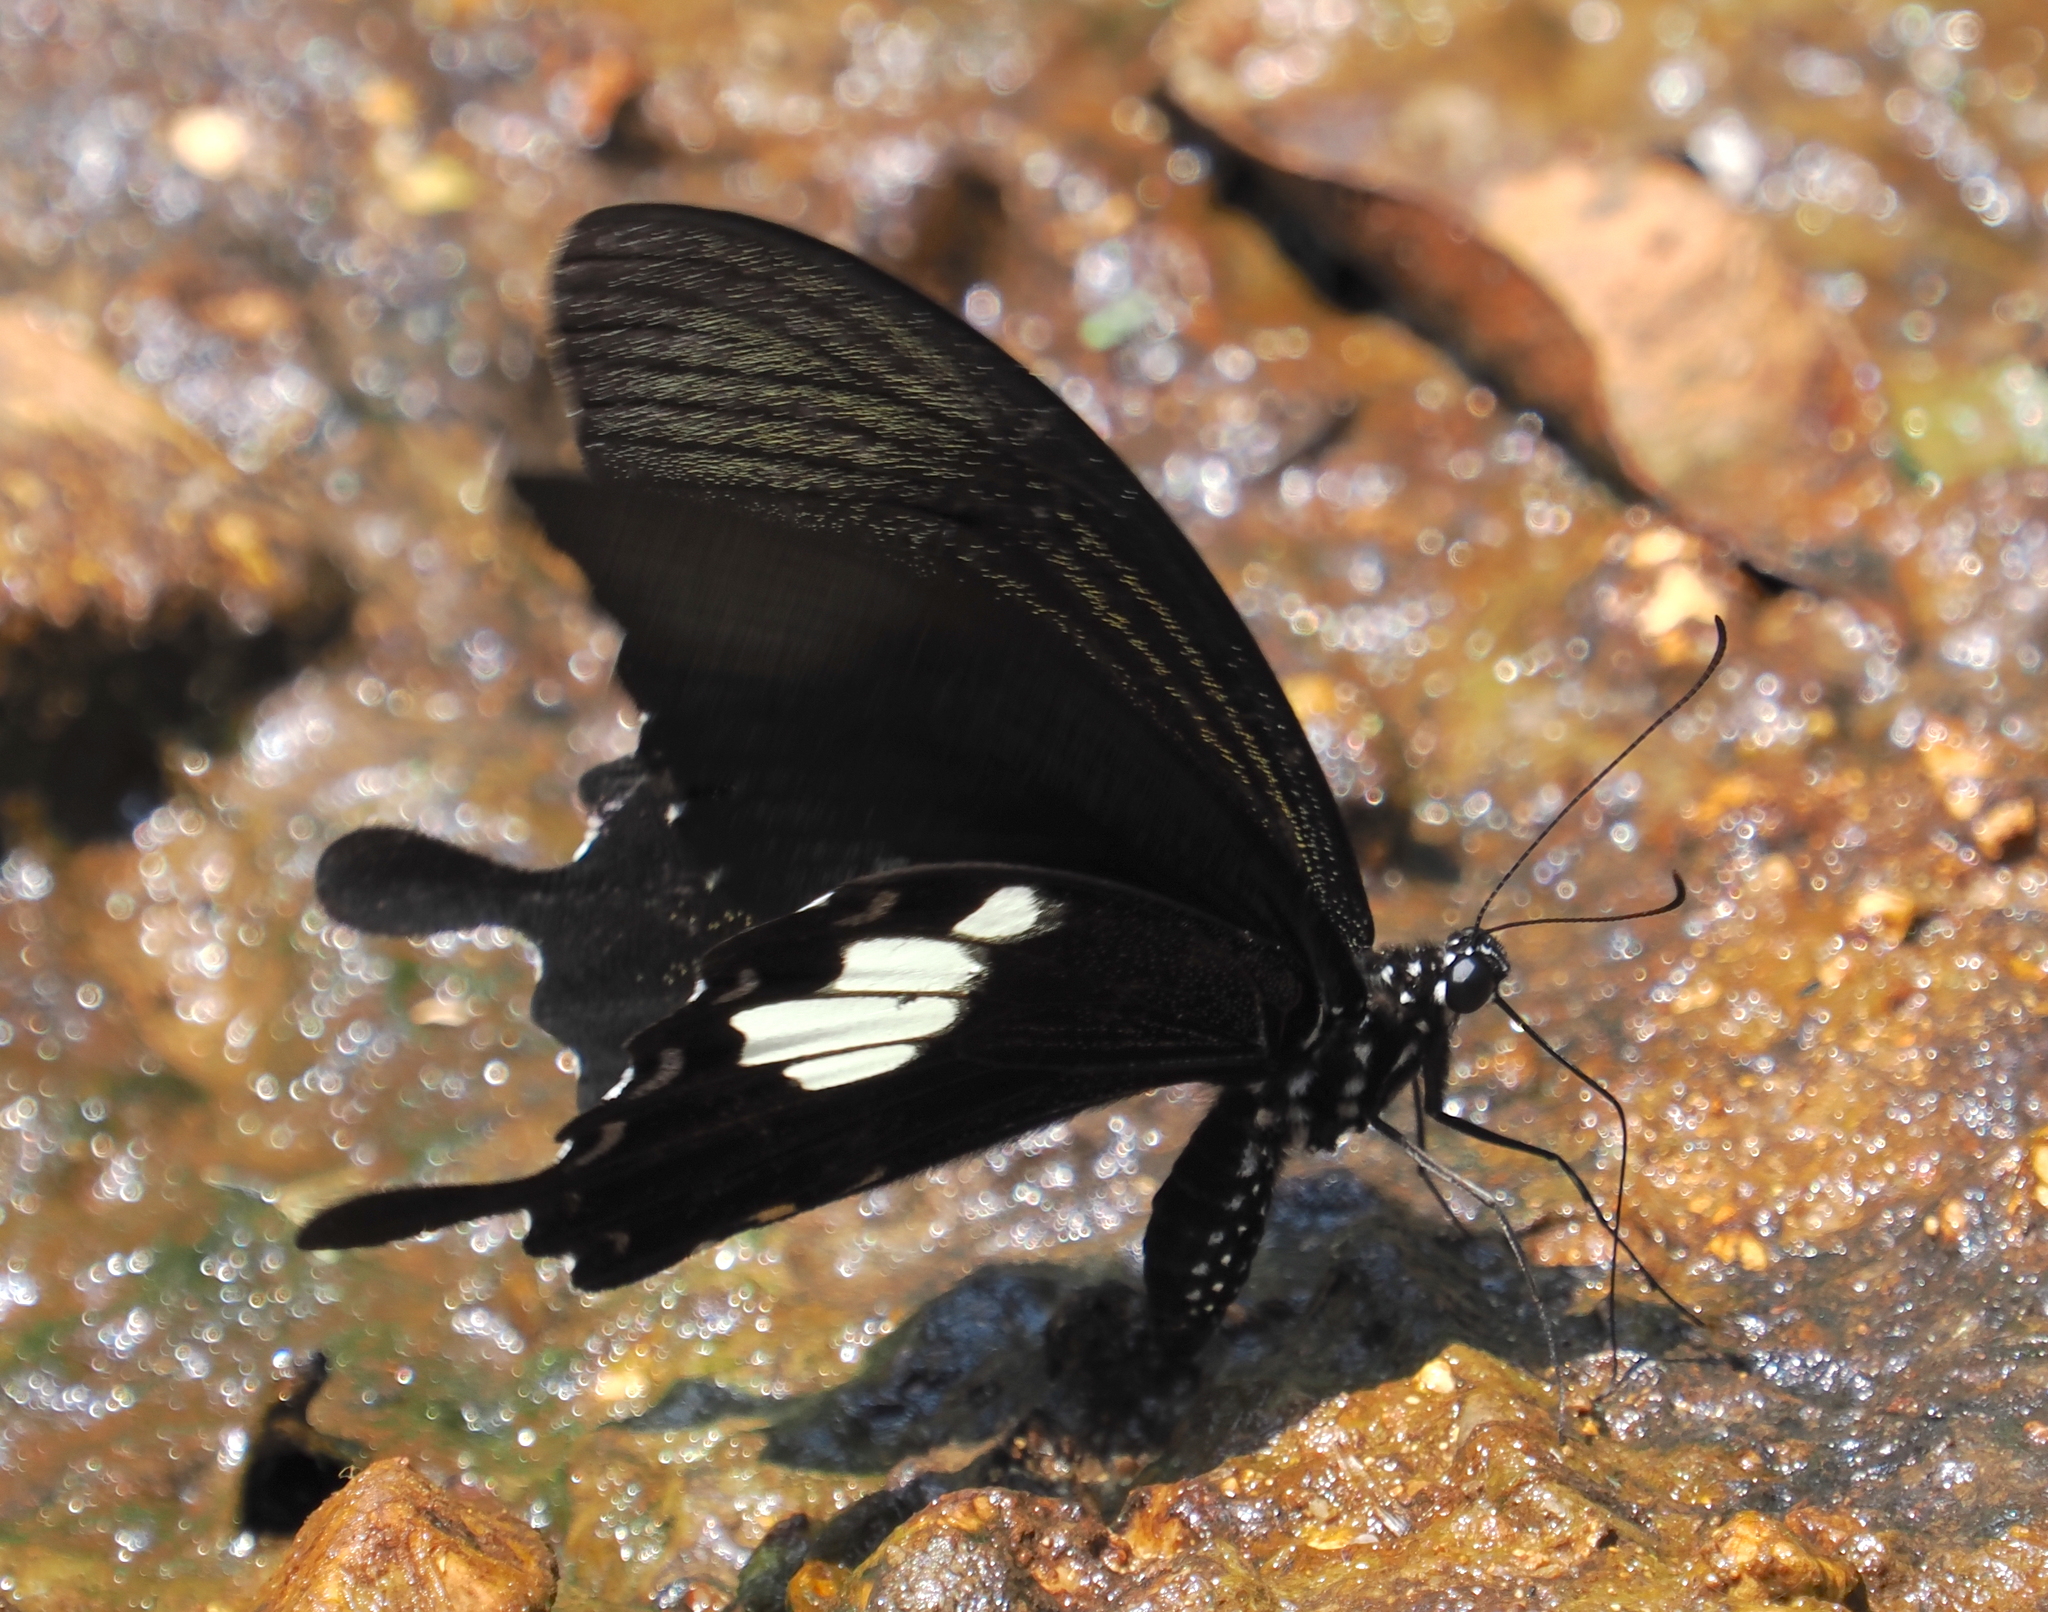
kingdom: Animalia
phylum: Arthropoda
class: Insecta
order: Lepidoptera
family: Papilionidae
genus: Papilio
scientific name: Papilio nephelus
